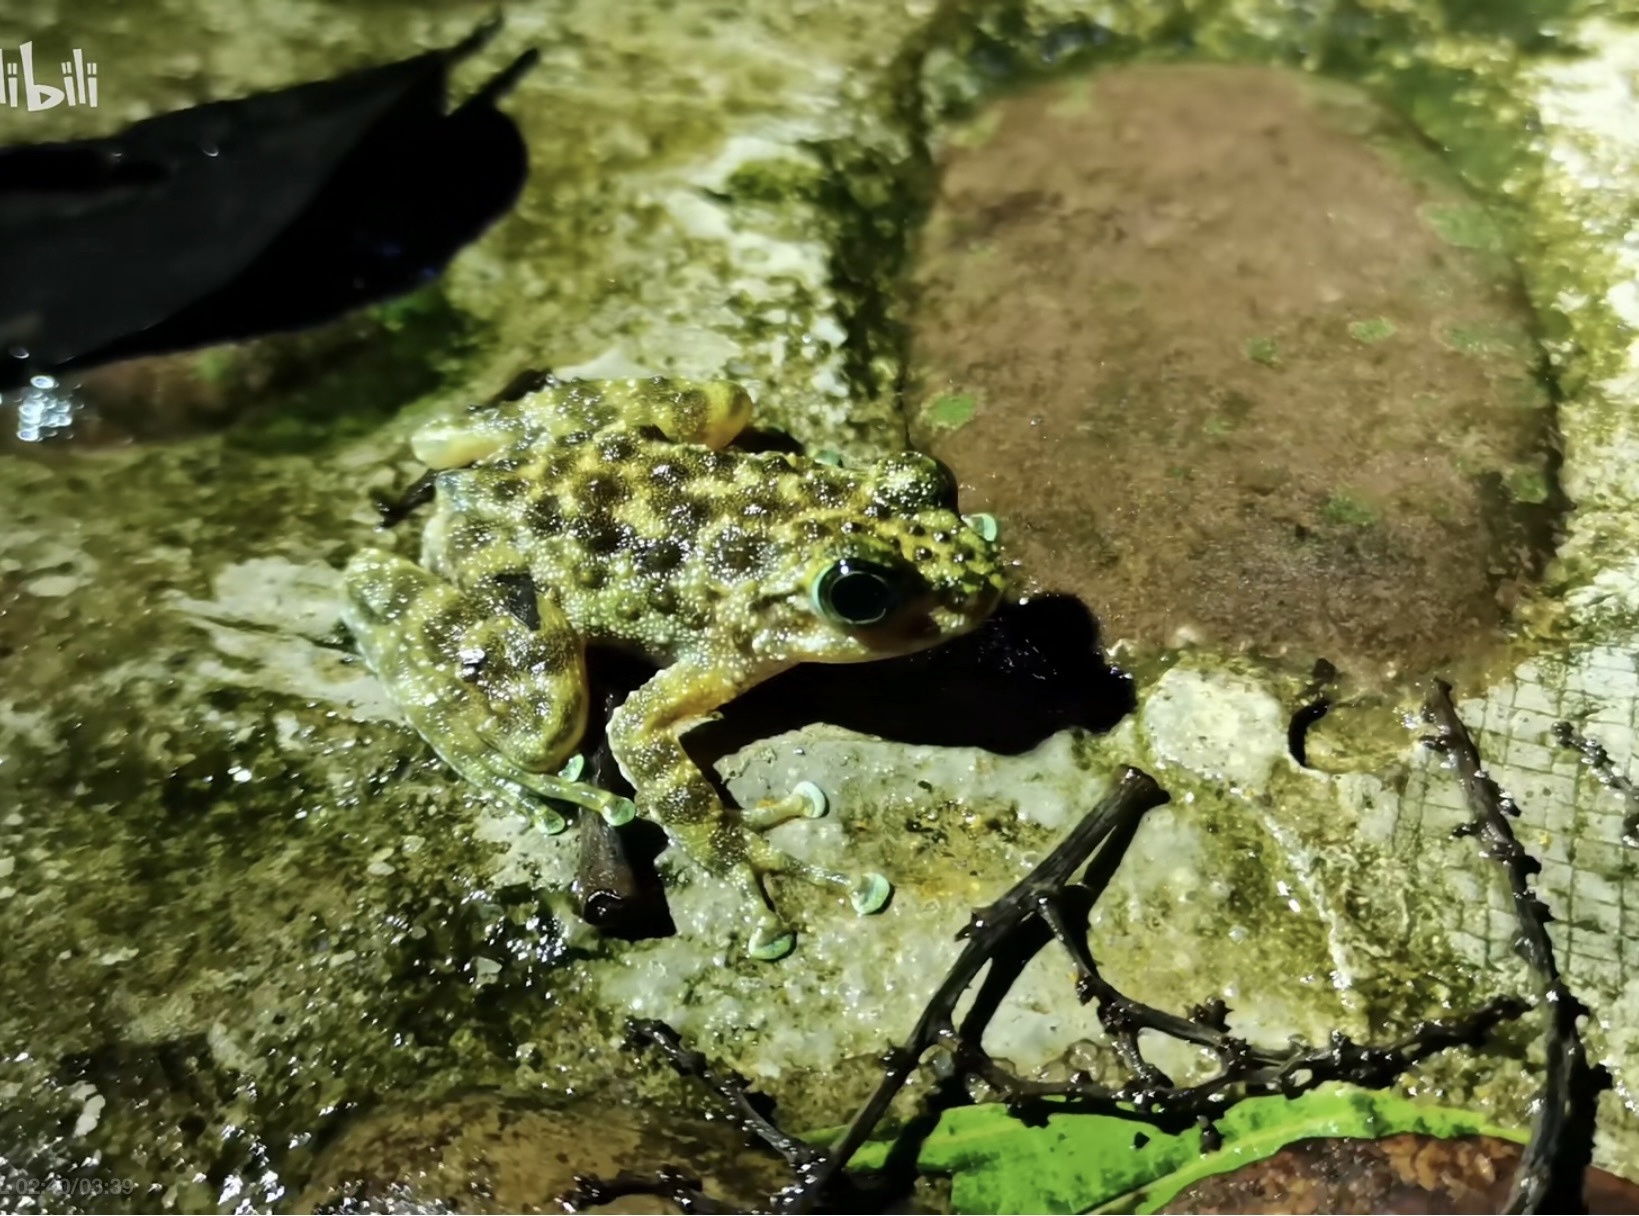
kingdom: Animalia
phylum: Chordata
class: Amphibia
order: Anura
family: Ranidae
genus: Amolops
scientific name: Amolops hainanensis
